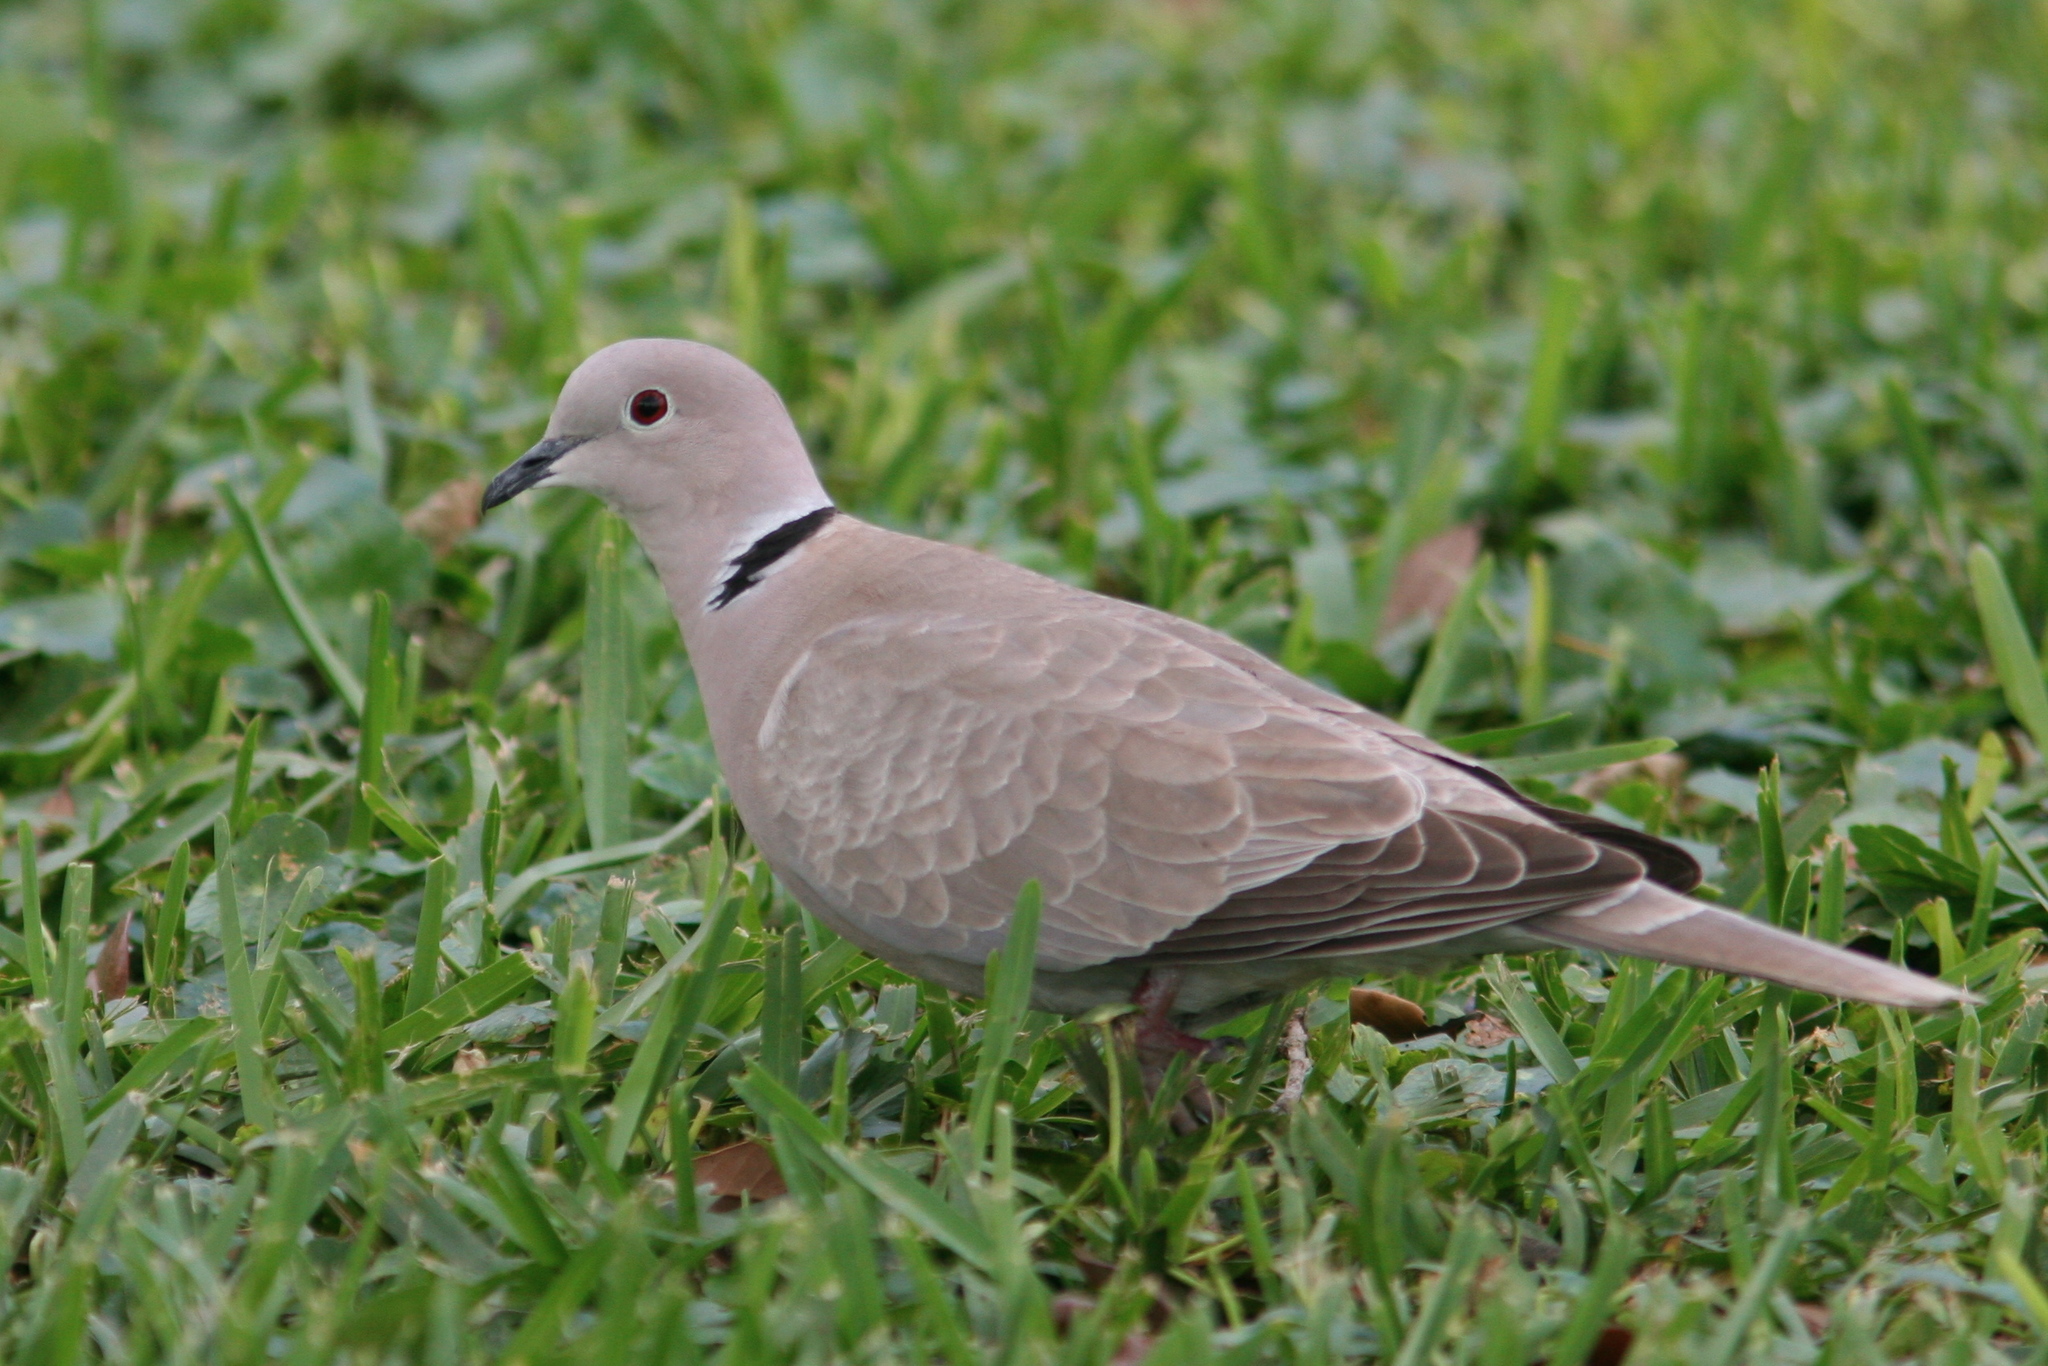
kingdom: Animalia
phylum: Chordata
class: Aves
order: Columbiformes
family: Columbidae
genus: Streptopelia
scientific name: Streptopelia decaocto
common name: Eurasian collared dove
